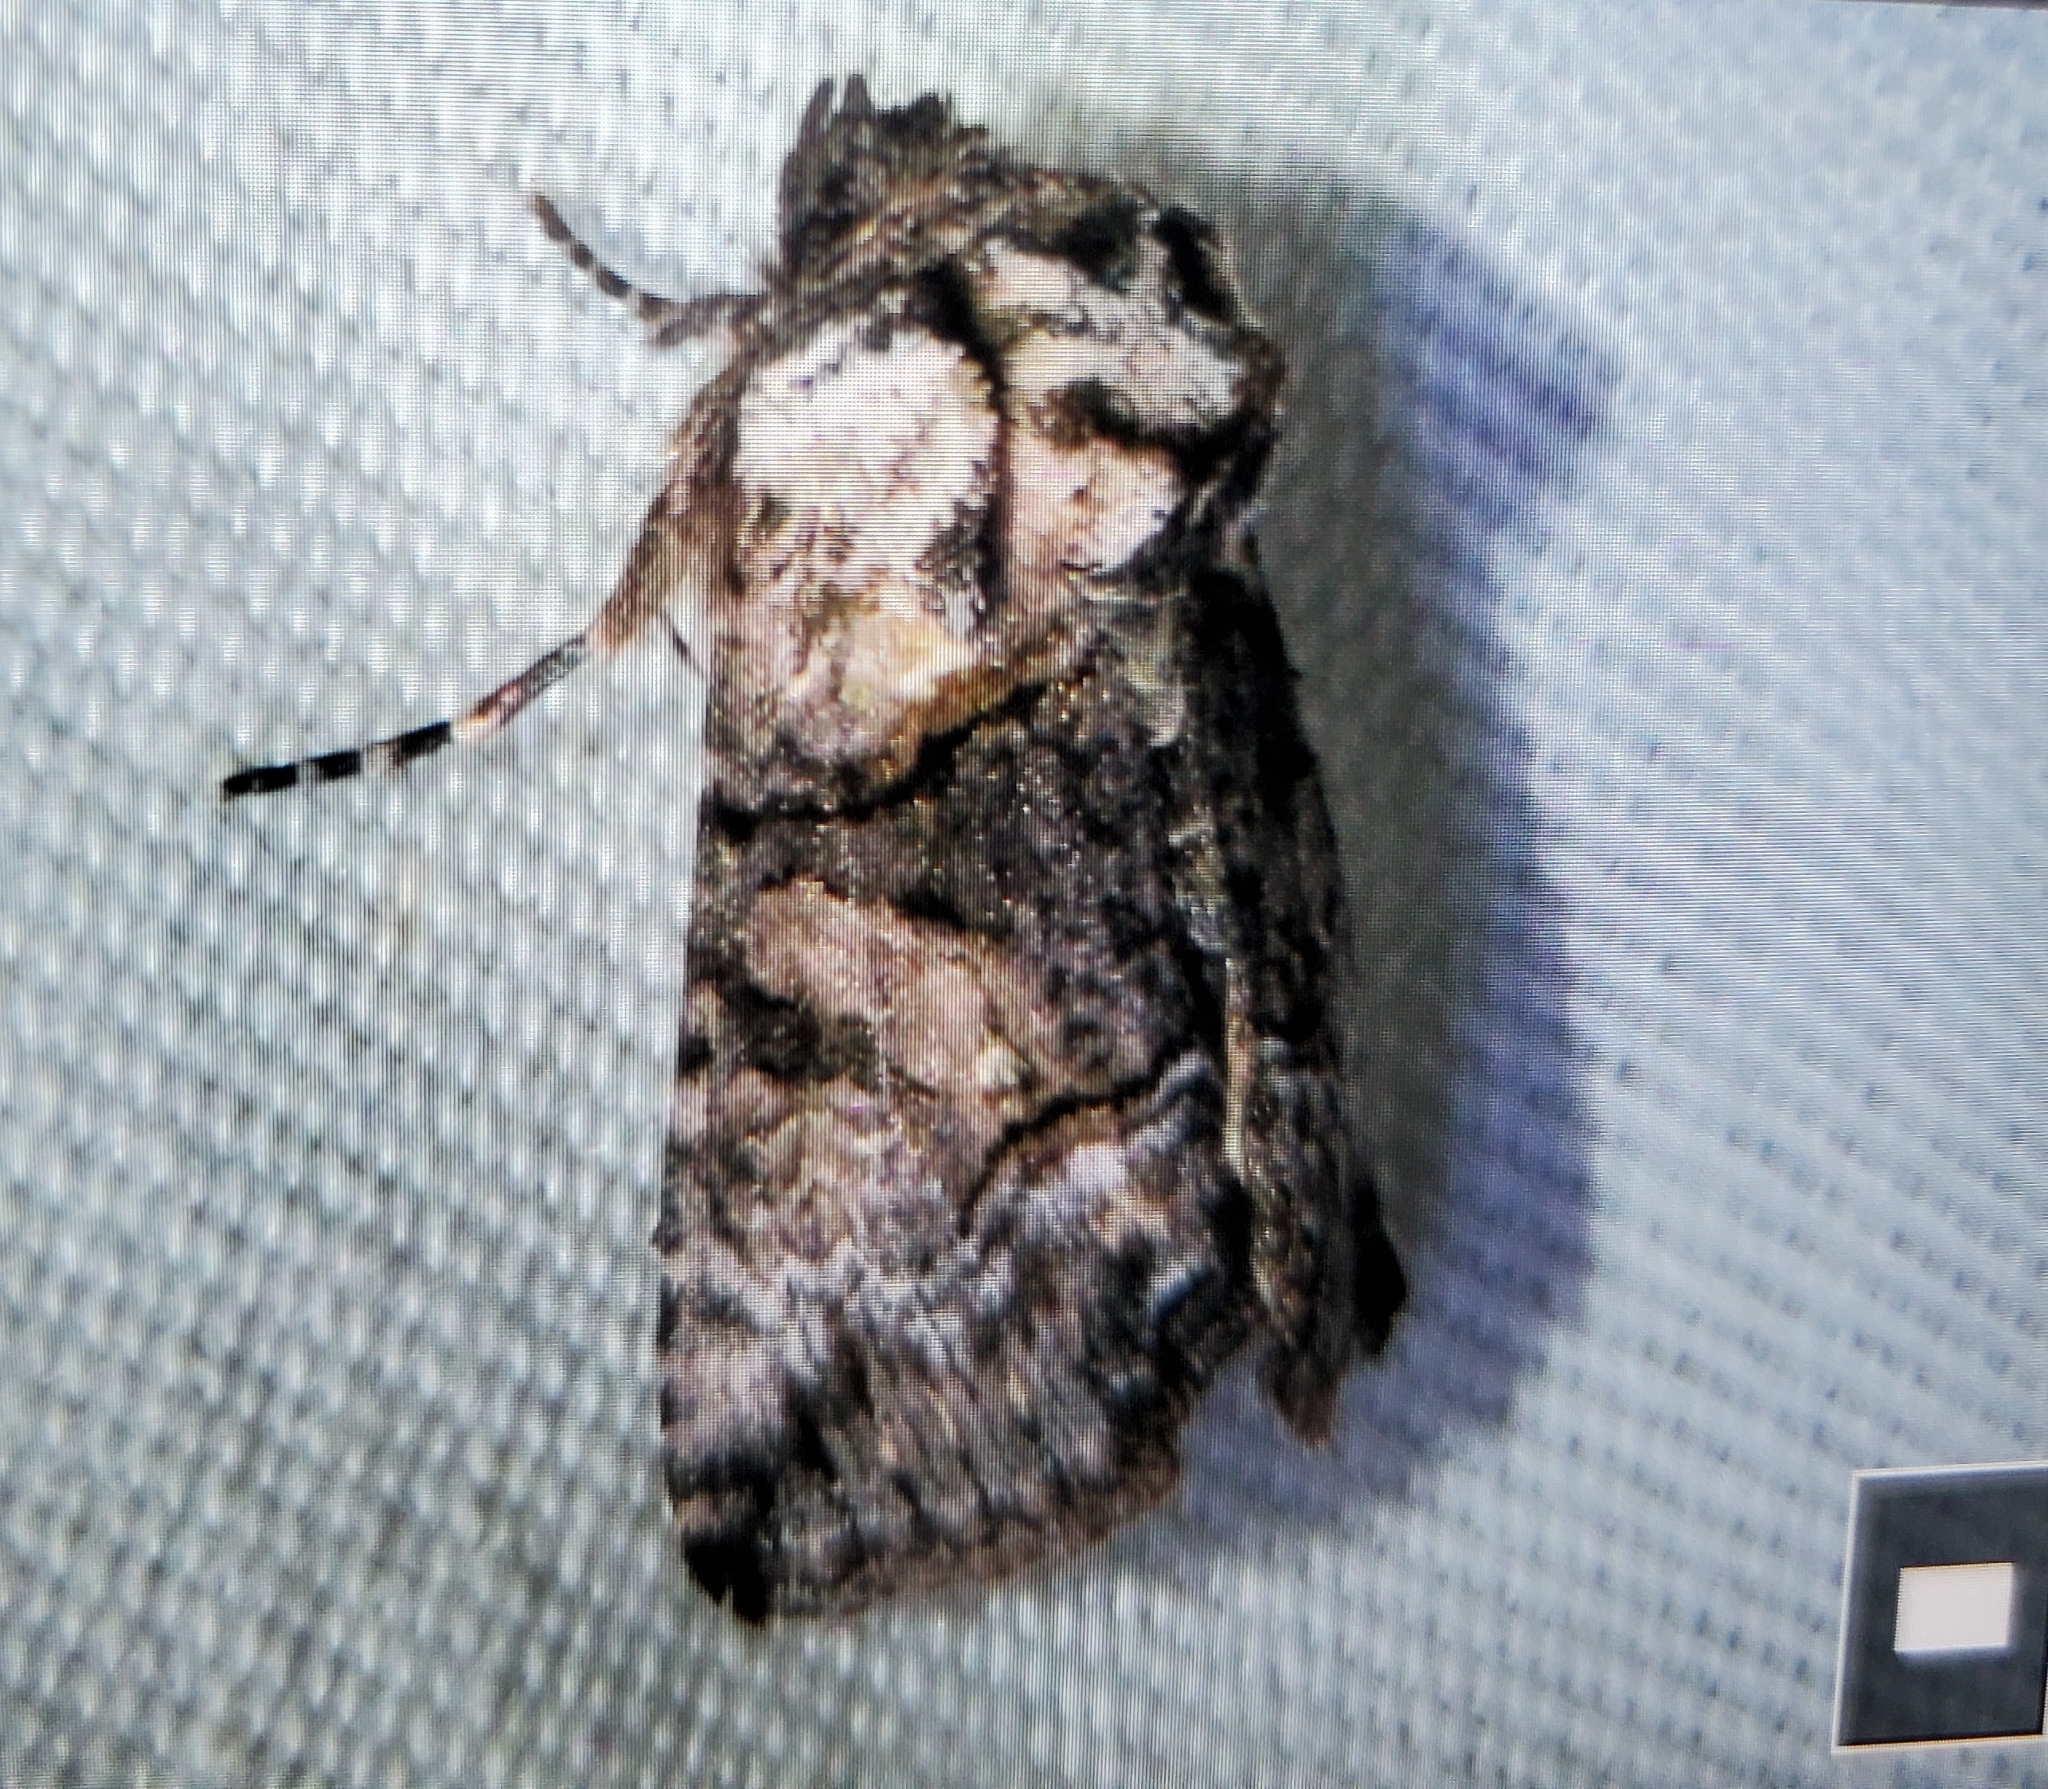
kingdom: Animalia
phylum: Arthropoda
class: Insecta
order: Lepidoptera
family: Noctuidae
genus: Abrostola
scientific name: Abrostola parvula
